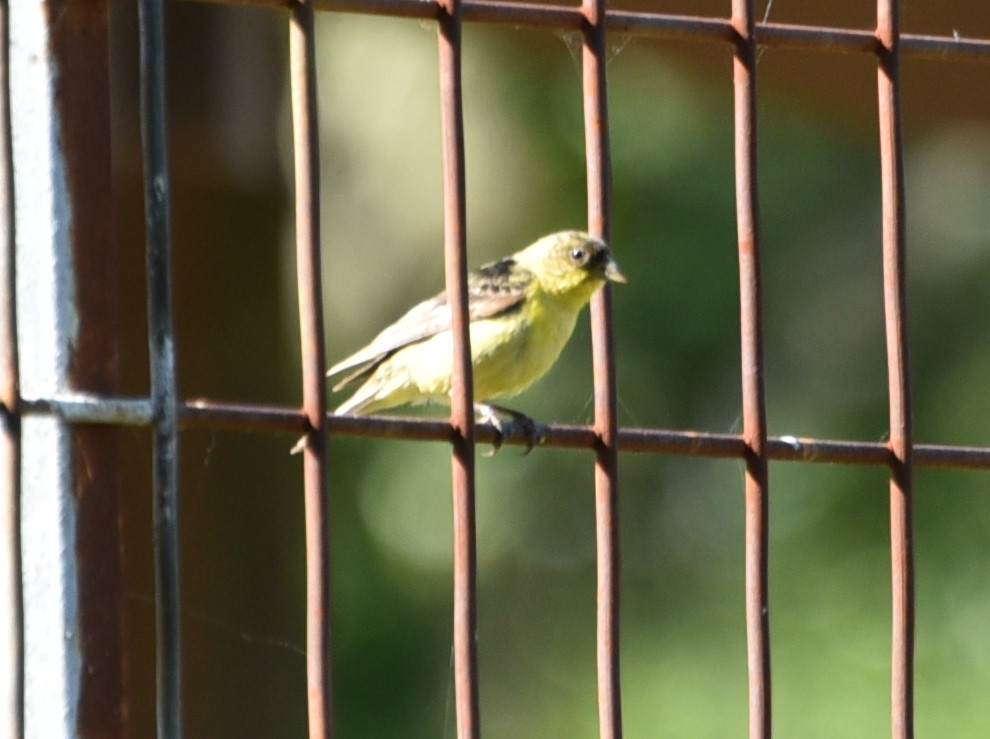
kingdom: Animalia
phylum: Chordata
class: Aves
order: Passeriformes
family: Fringillidae
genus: Spinus
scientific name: Spinus psaltria
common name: Lesser goldfinch
